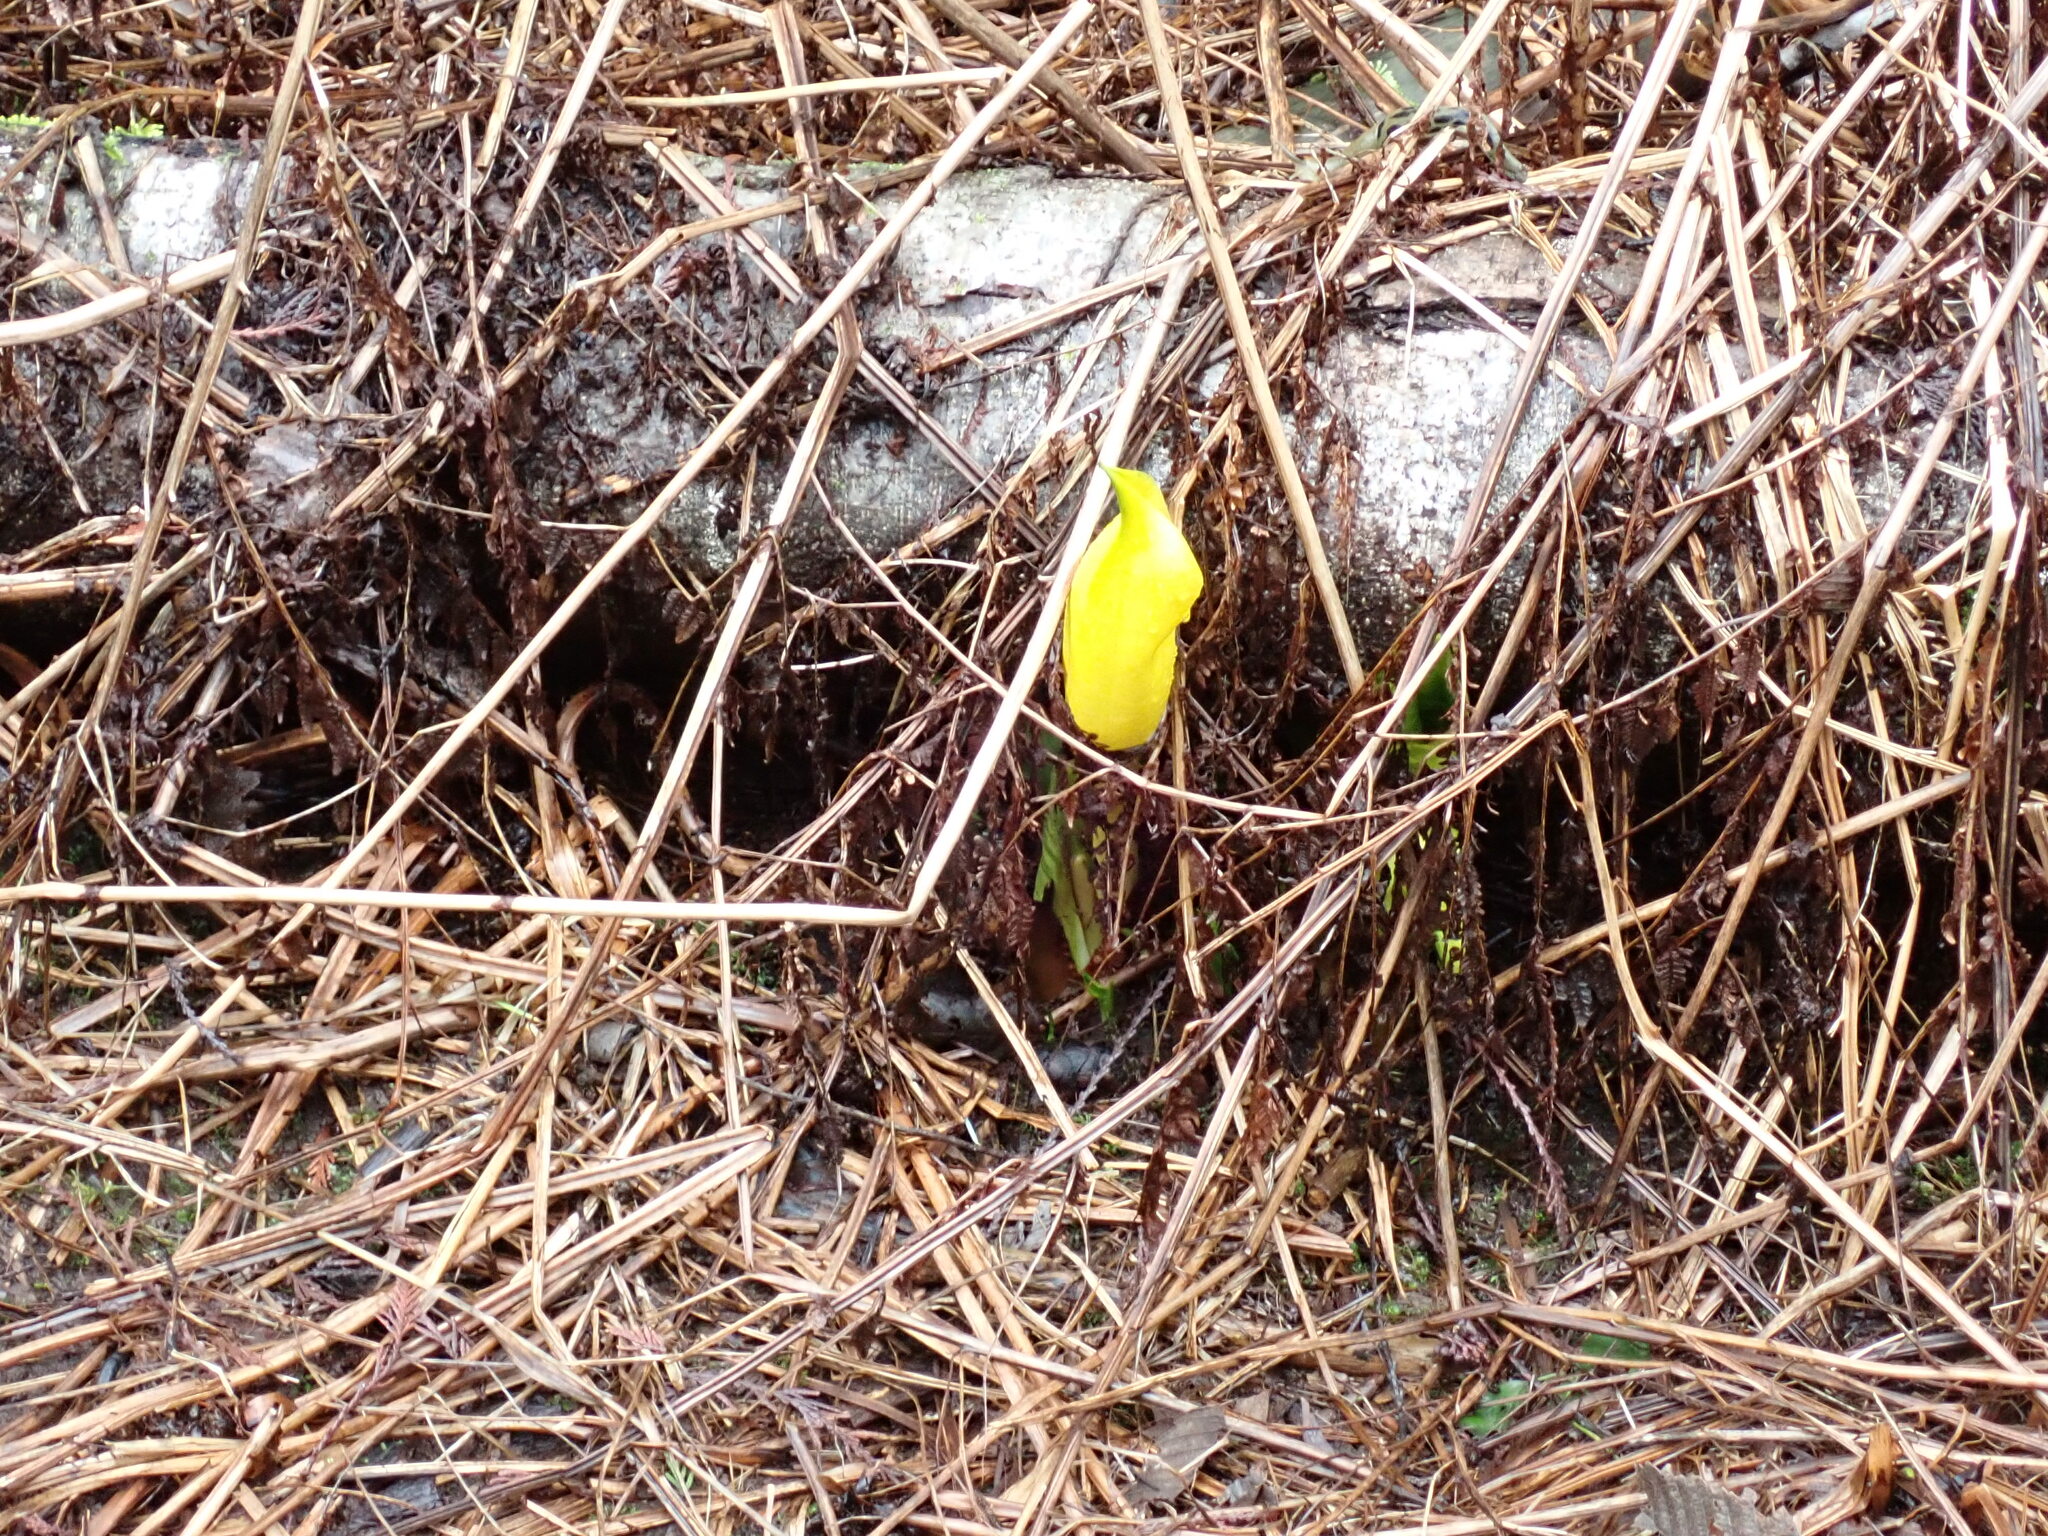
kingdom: Plantae
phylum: Tracheophyta
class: Liliopsida
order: Alismatales
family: Araceae
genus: Lysichiton
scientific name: Lysichiton americanus
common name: American skunk cabbage
